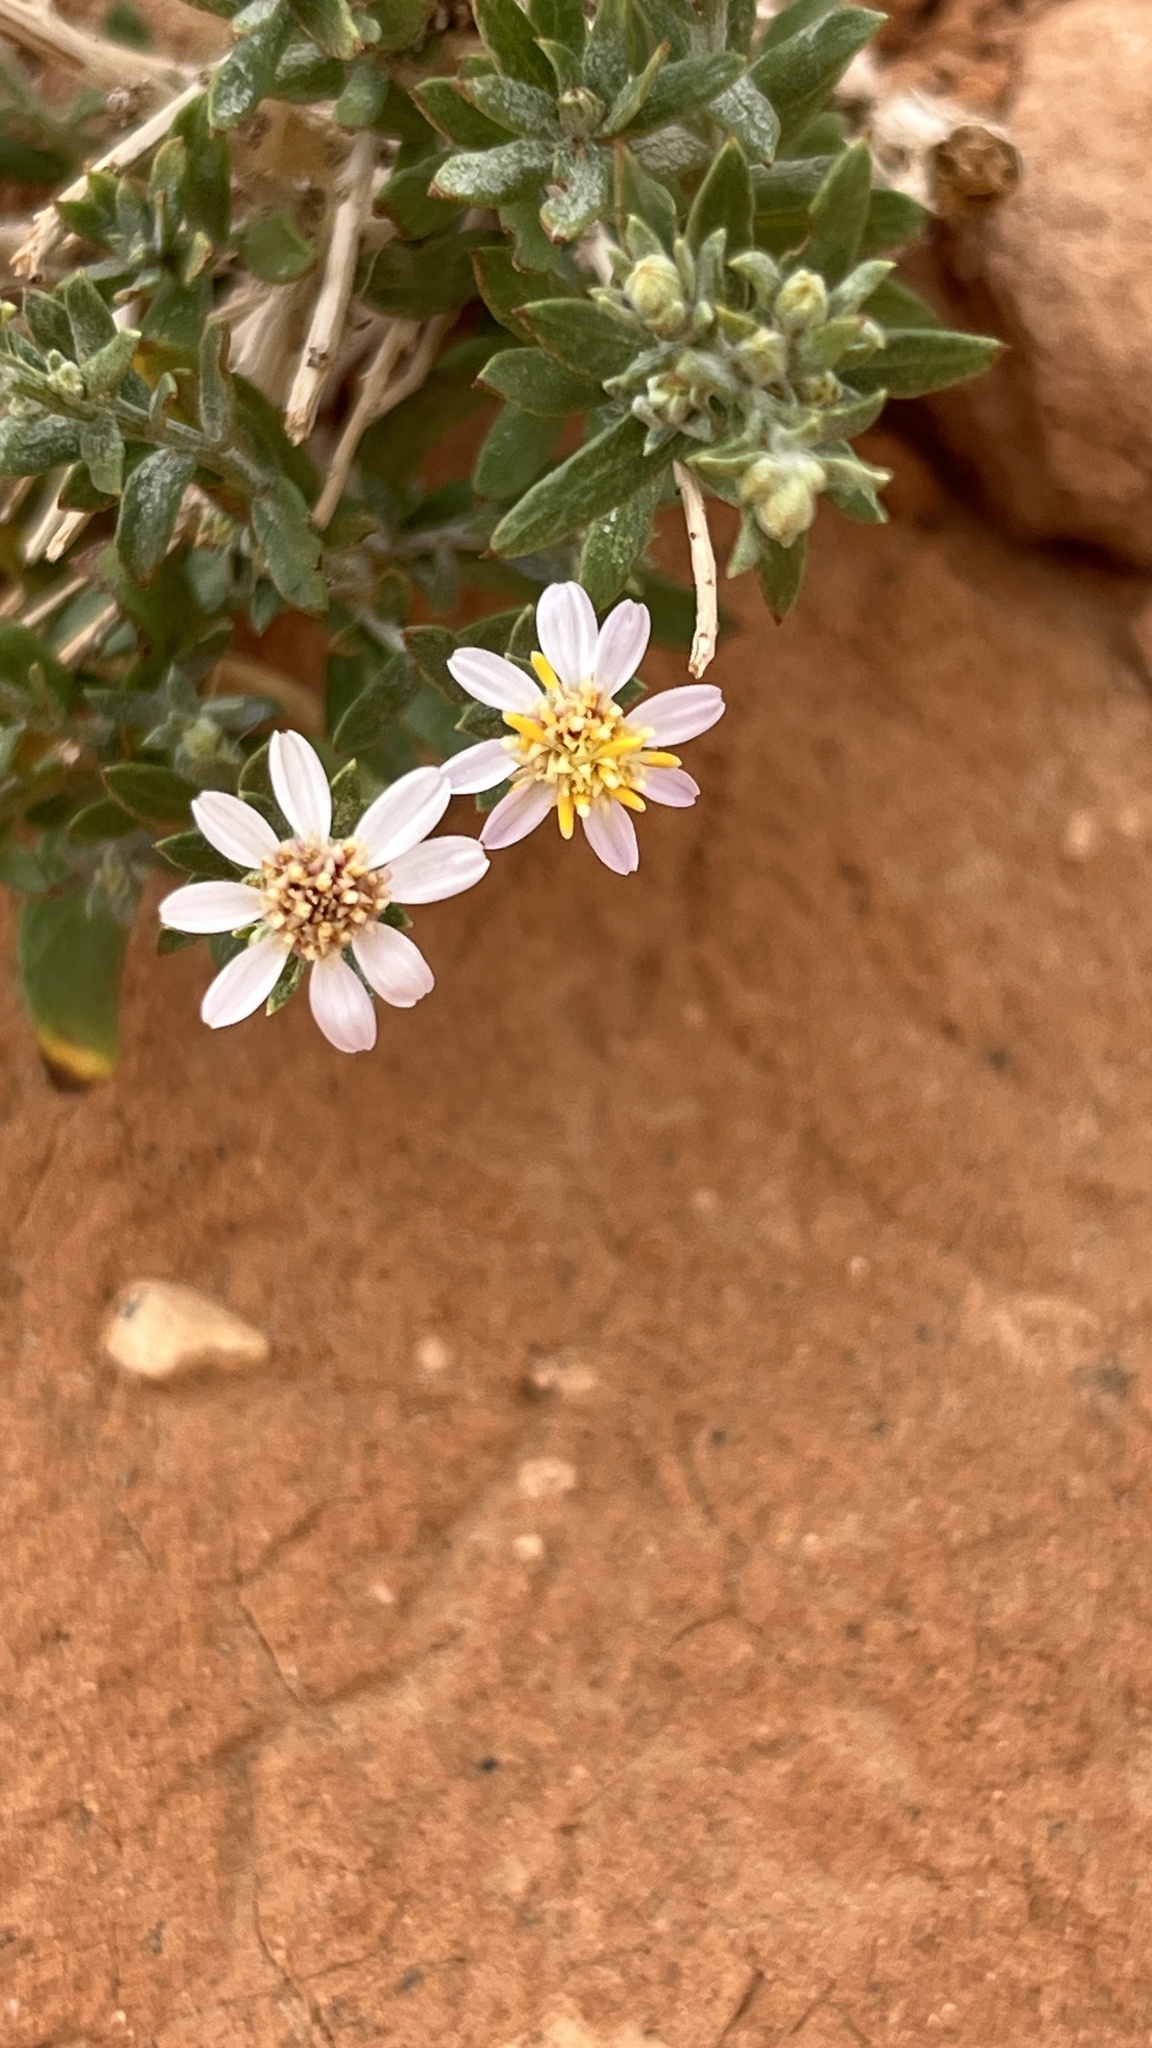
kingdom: Plantae
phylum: Tracheophyta
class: Magnoliopsida
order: Asterales
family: Asteraceae
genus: Asterothamnus
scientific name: Asterothamnus centraliasiaticus
